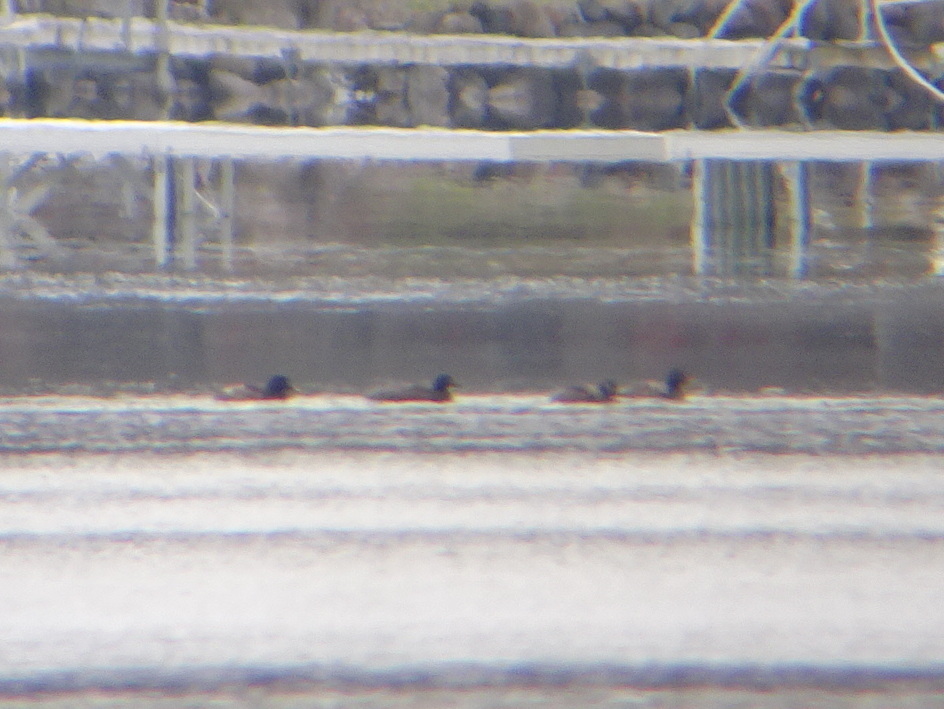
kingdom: Animalia
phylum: Chordata
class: Aves
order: Anseriformes
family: Anatidae
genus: Melanitta
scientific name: Melanitta deglandi
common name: White-winged scoter
